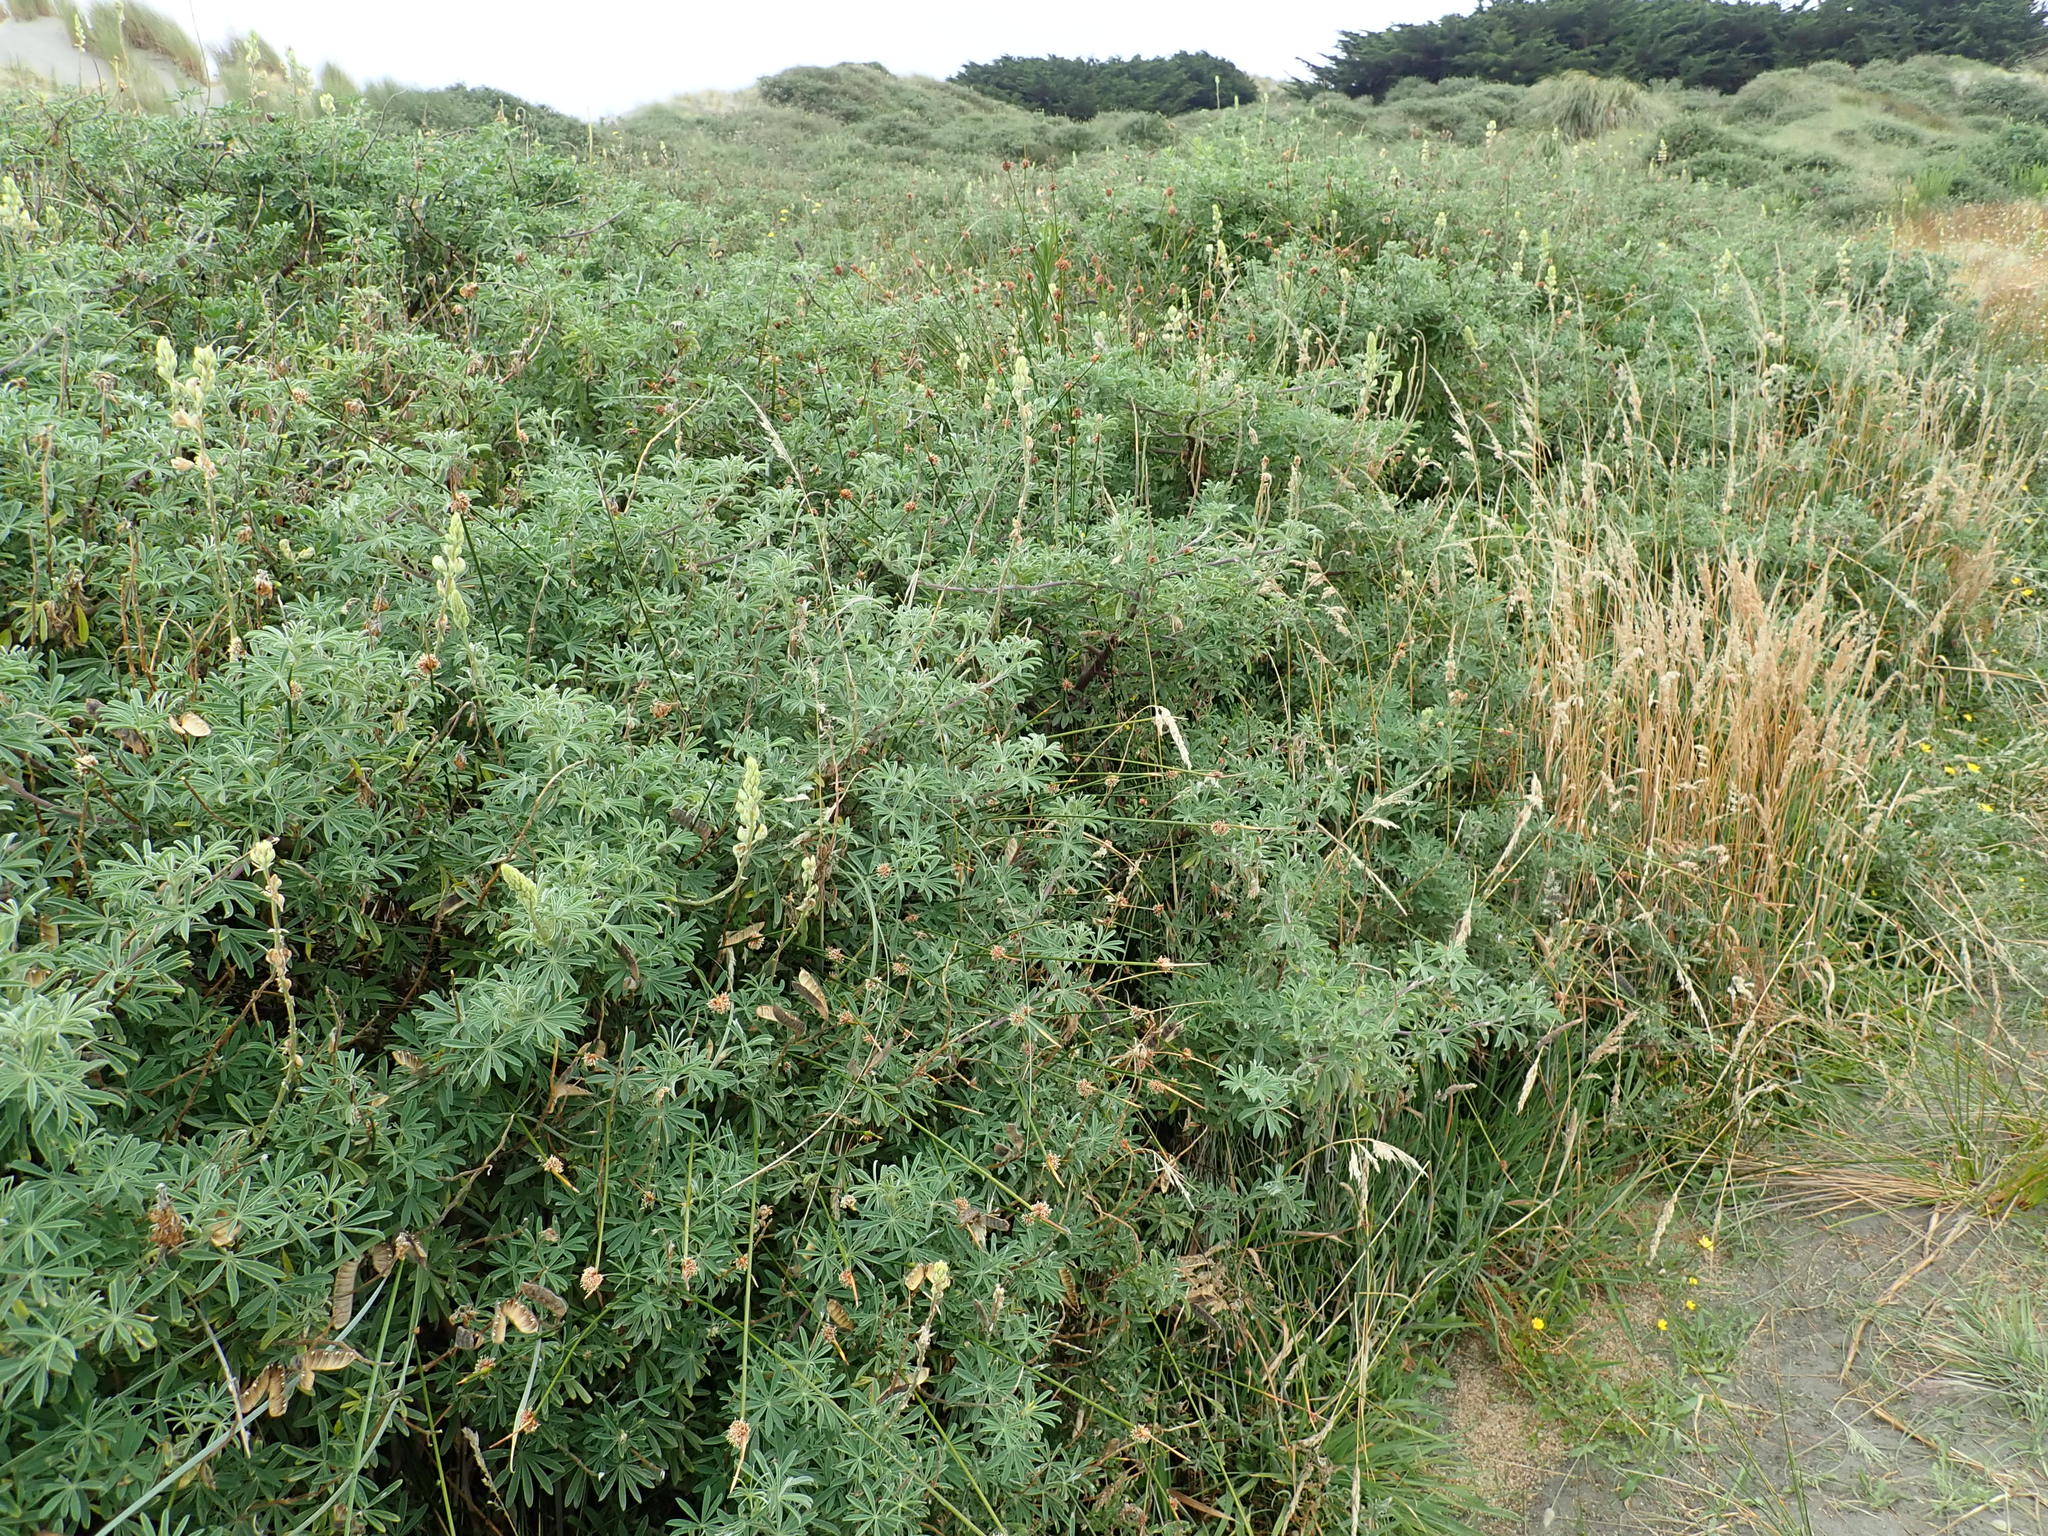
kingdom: Plantae
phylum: Tracheophyta
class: Magnoliopsida
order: Fabales
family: Fabaceae
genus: Lupinus
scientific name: Lupinus arboreus
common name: Yellow bush lupine
